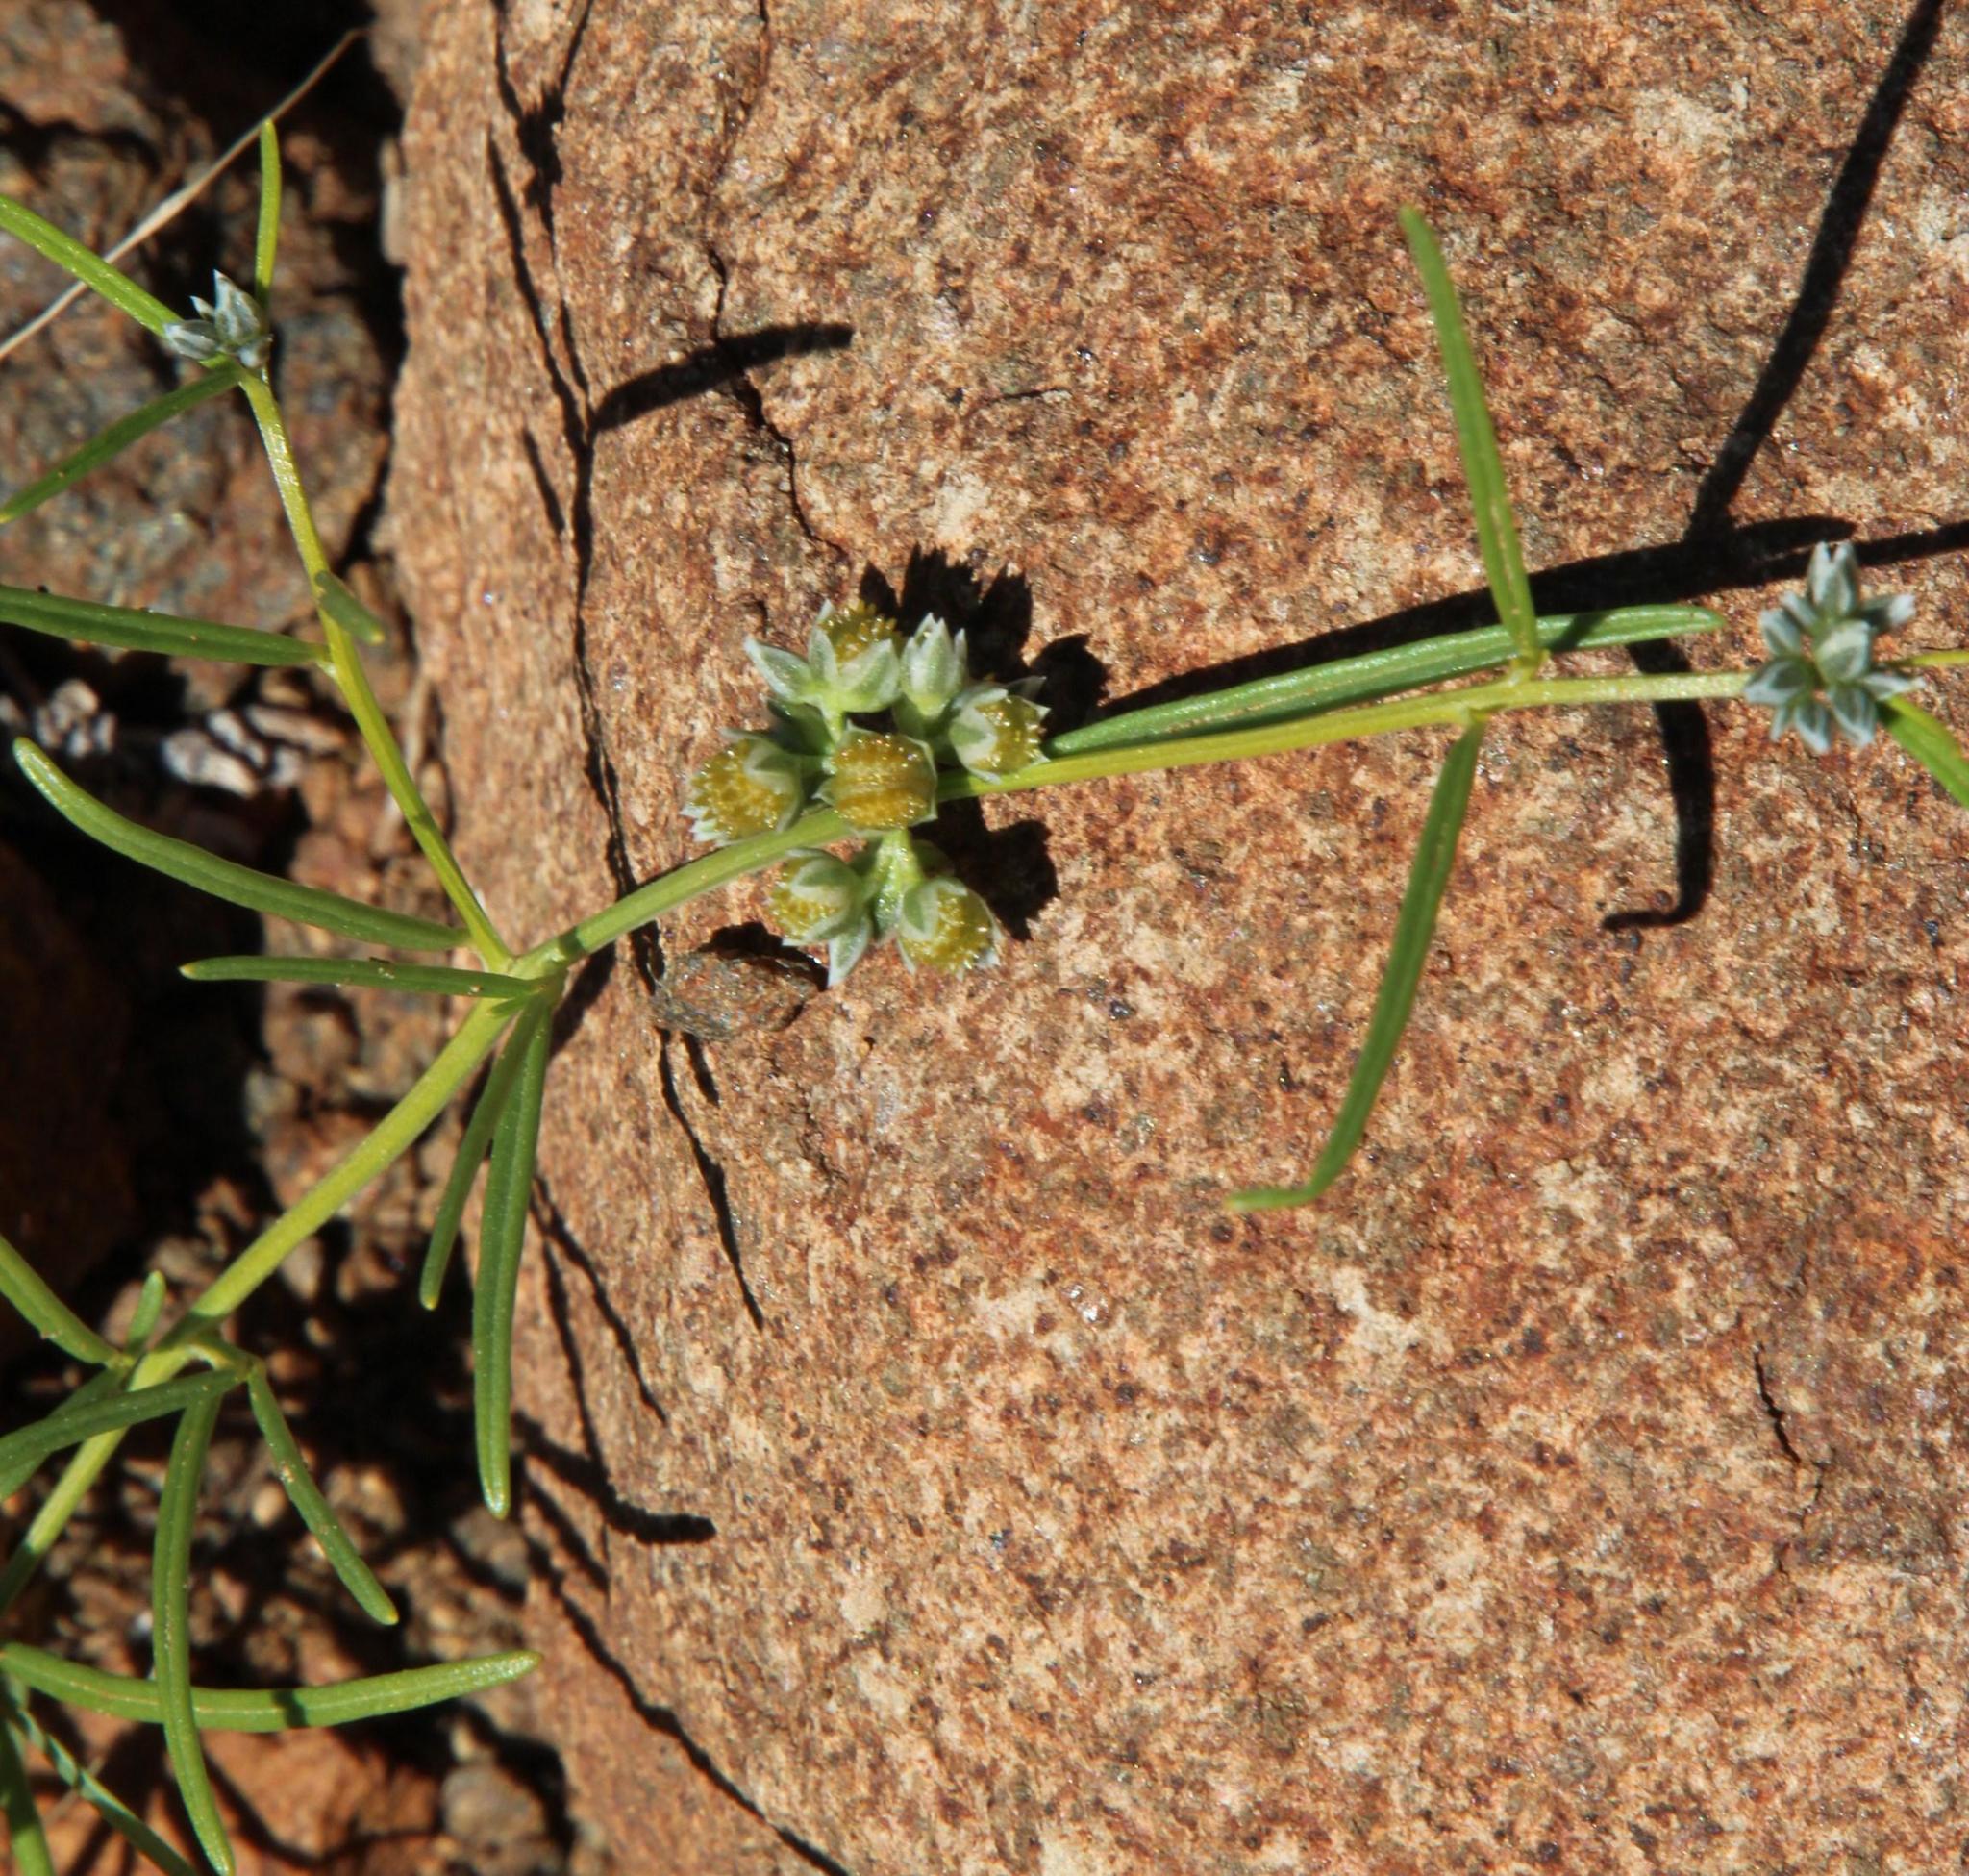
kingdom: Plantae
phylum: Tracheophyta
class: Magnoliopsida
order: Caryophyllales
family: Limeaceae
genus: Limeum
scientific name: Limeum sulcatum
